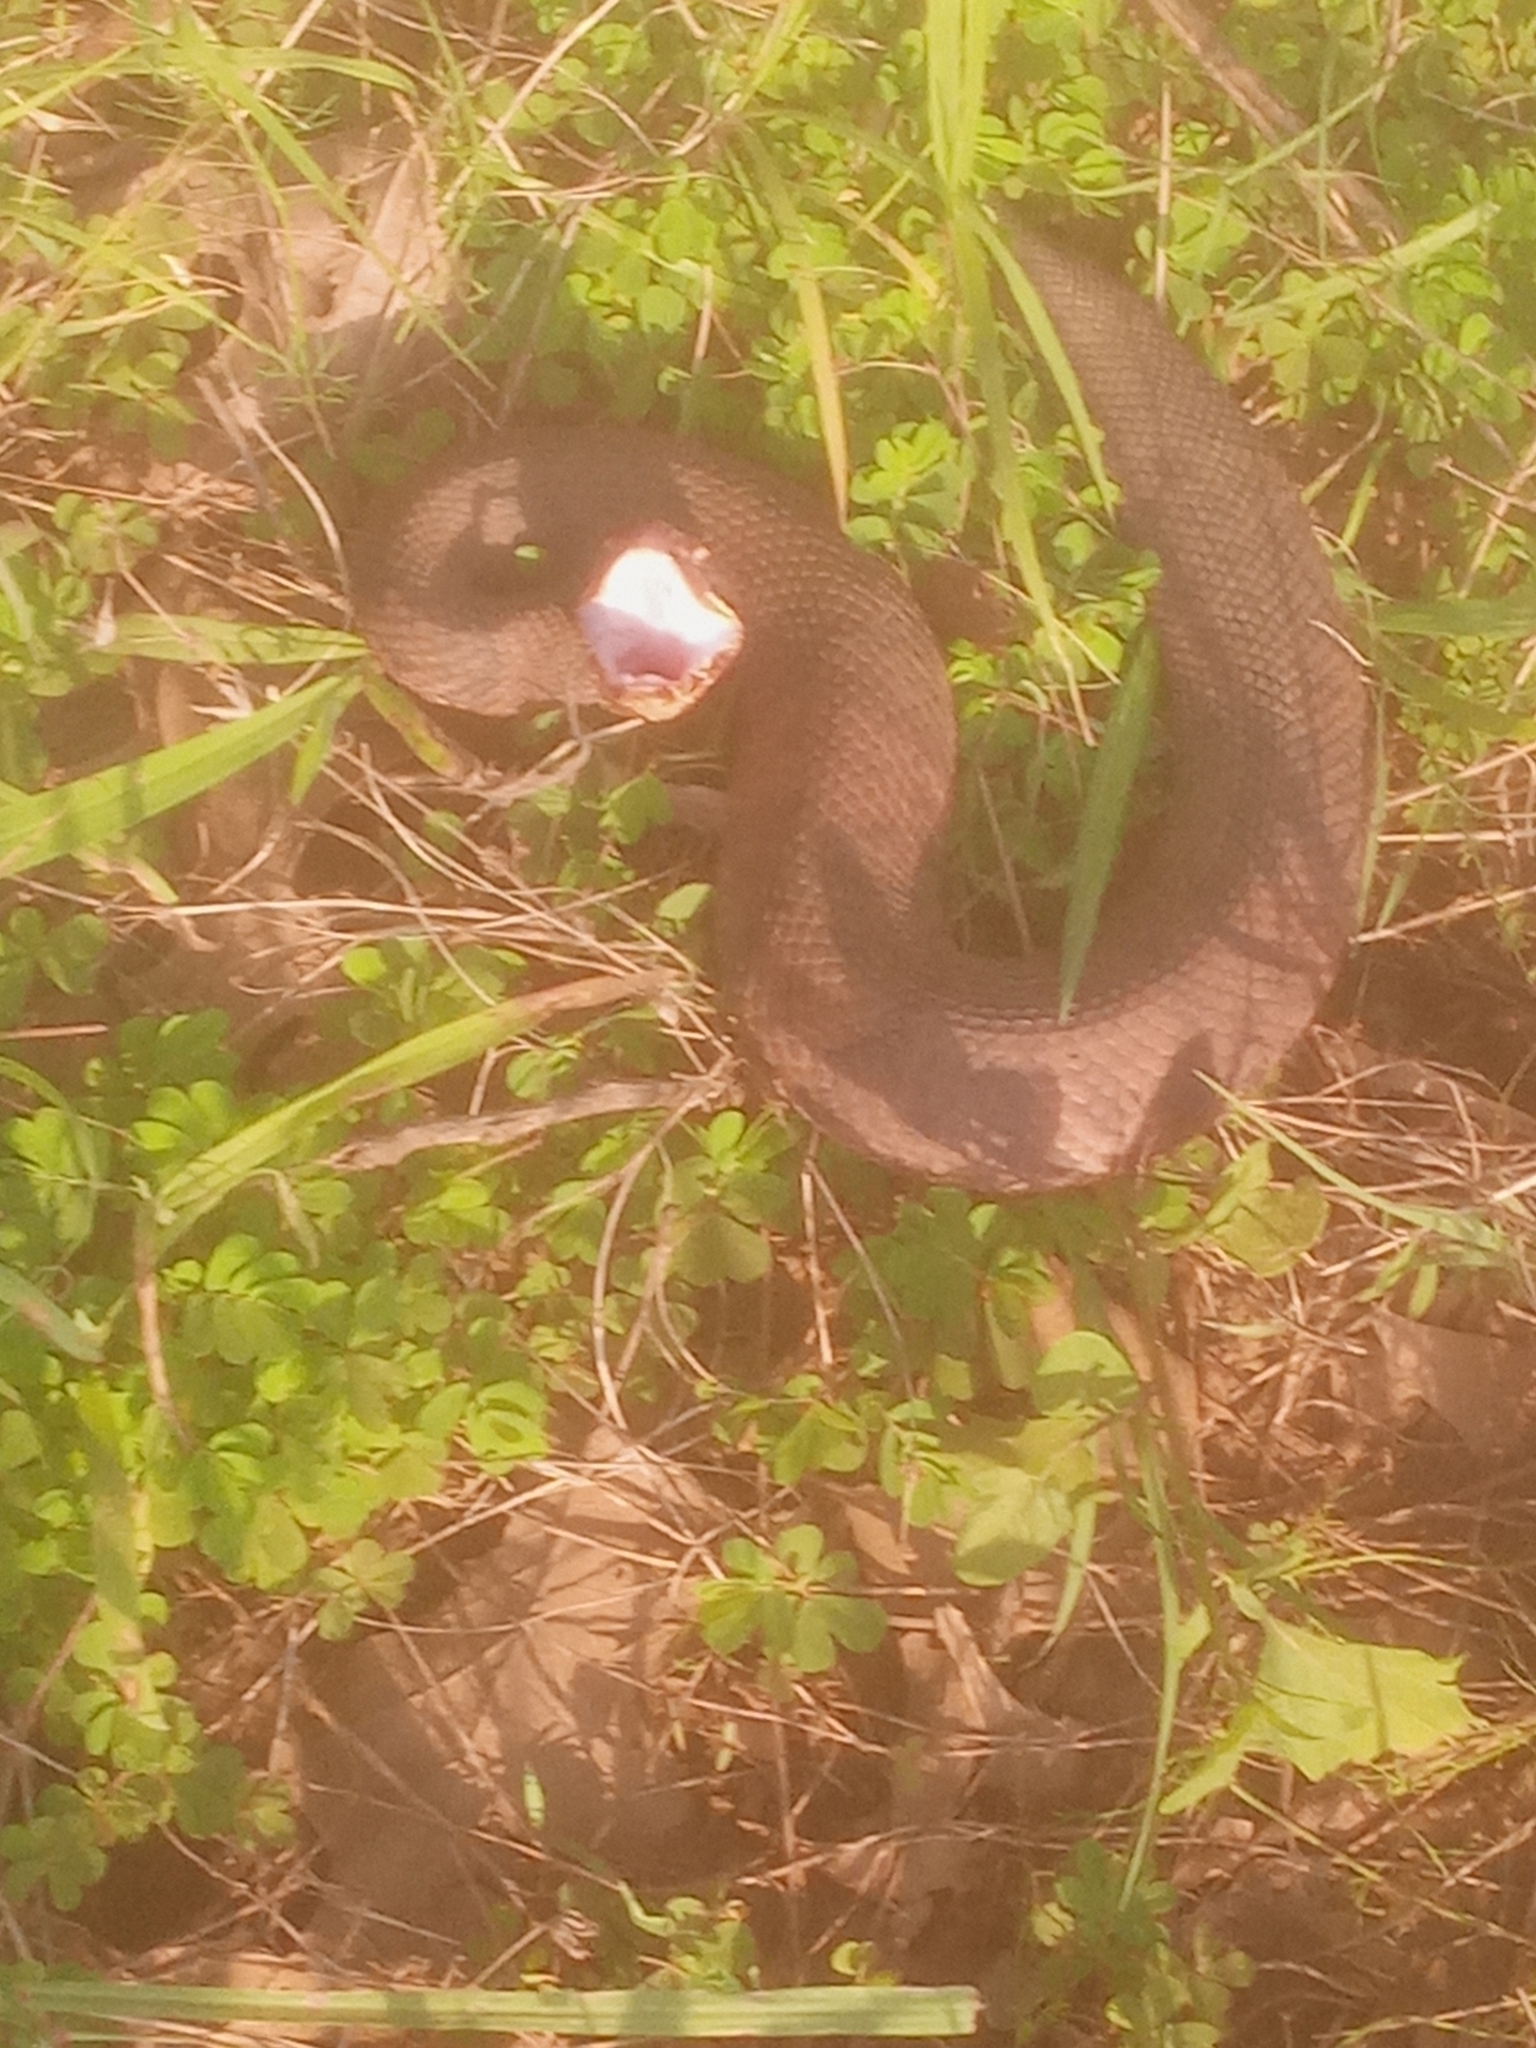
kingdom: Animalia
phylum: Chordata
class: Squamata
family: Viperidae
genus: Agkistrodon
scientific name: Agkistrodon piscivorus
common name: Cottonmouth
